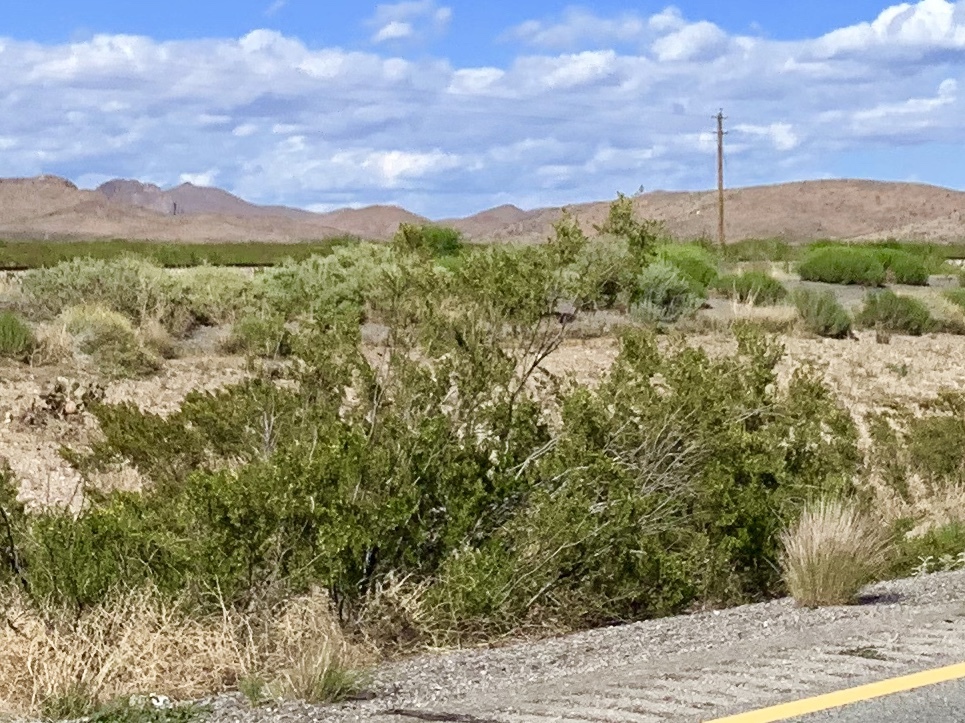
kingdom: Plantae
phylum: Tracheophyta
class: Magnoliopsida
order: Zygophyllales
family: Zygophyllaceae
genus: Larrea
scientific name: Larrea tridentata
